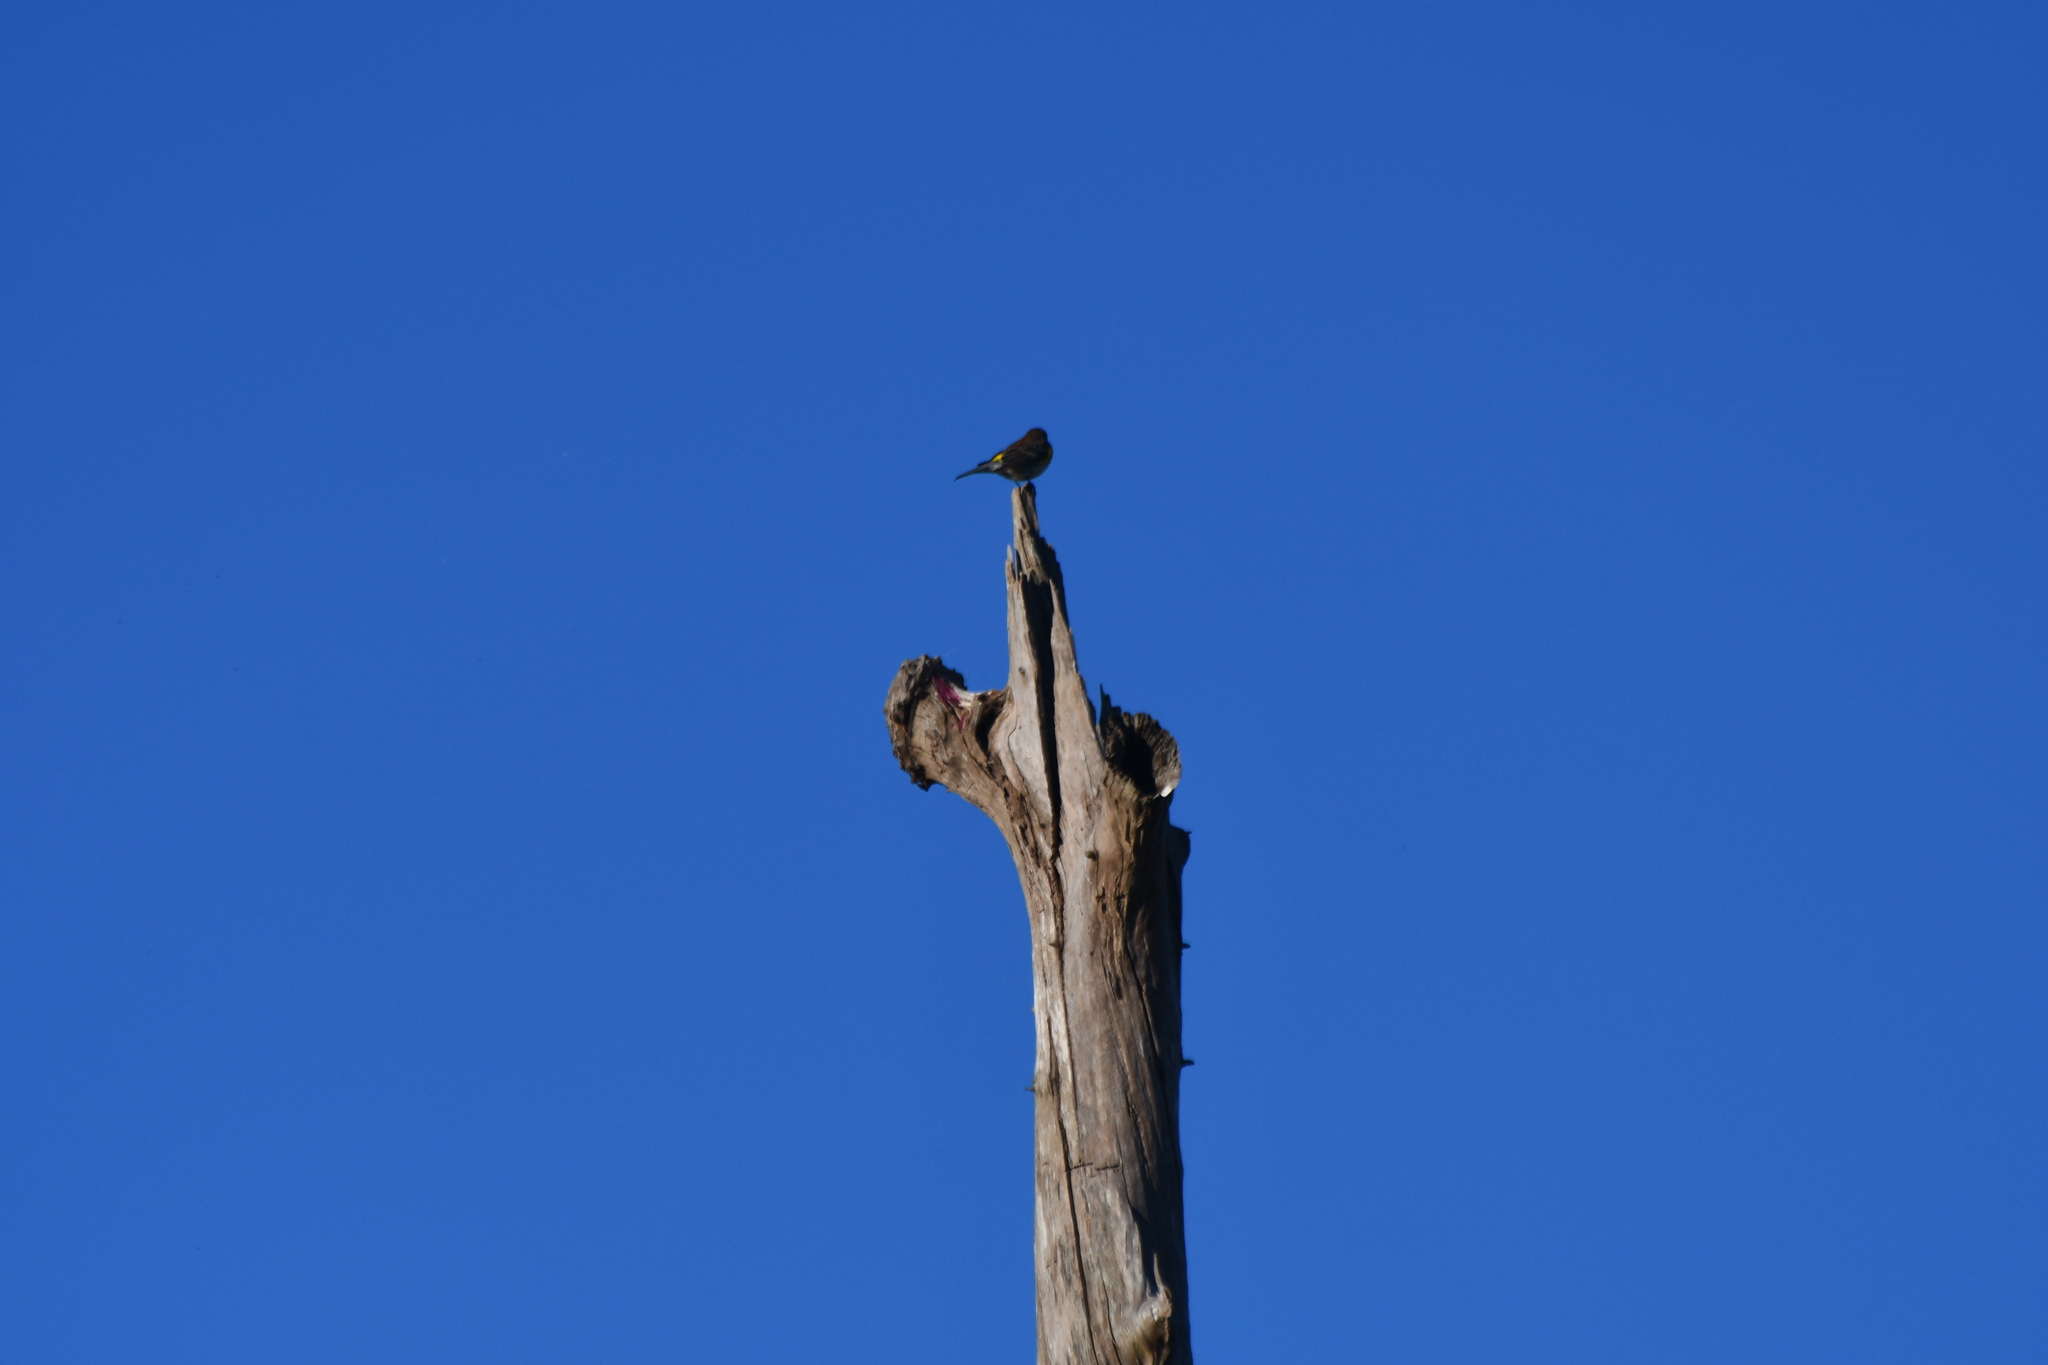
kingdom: Animalia
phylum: Chordata
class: Aves
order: Passeriformes
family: Parulidae
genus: Setophaga
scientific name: Setophaga coronata
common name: Myrtle warbler
